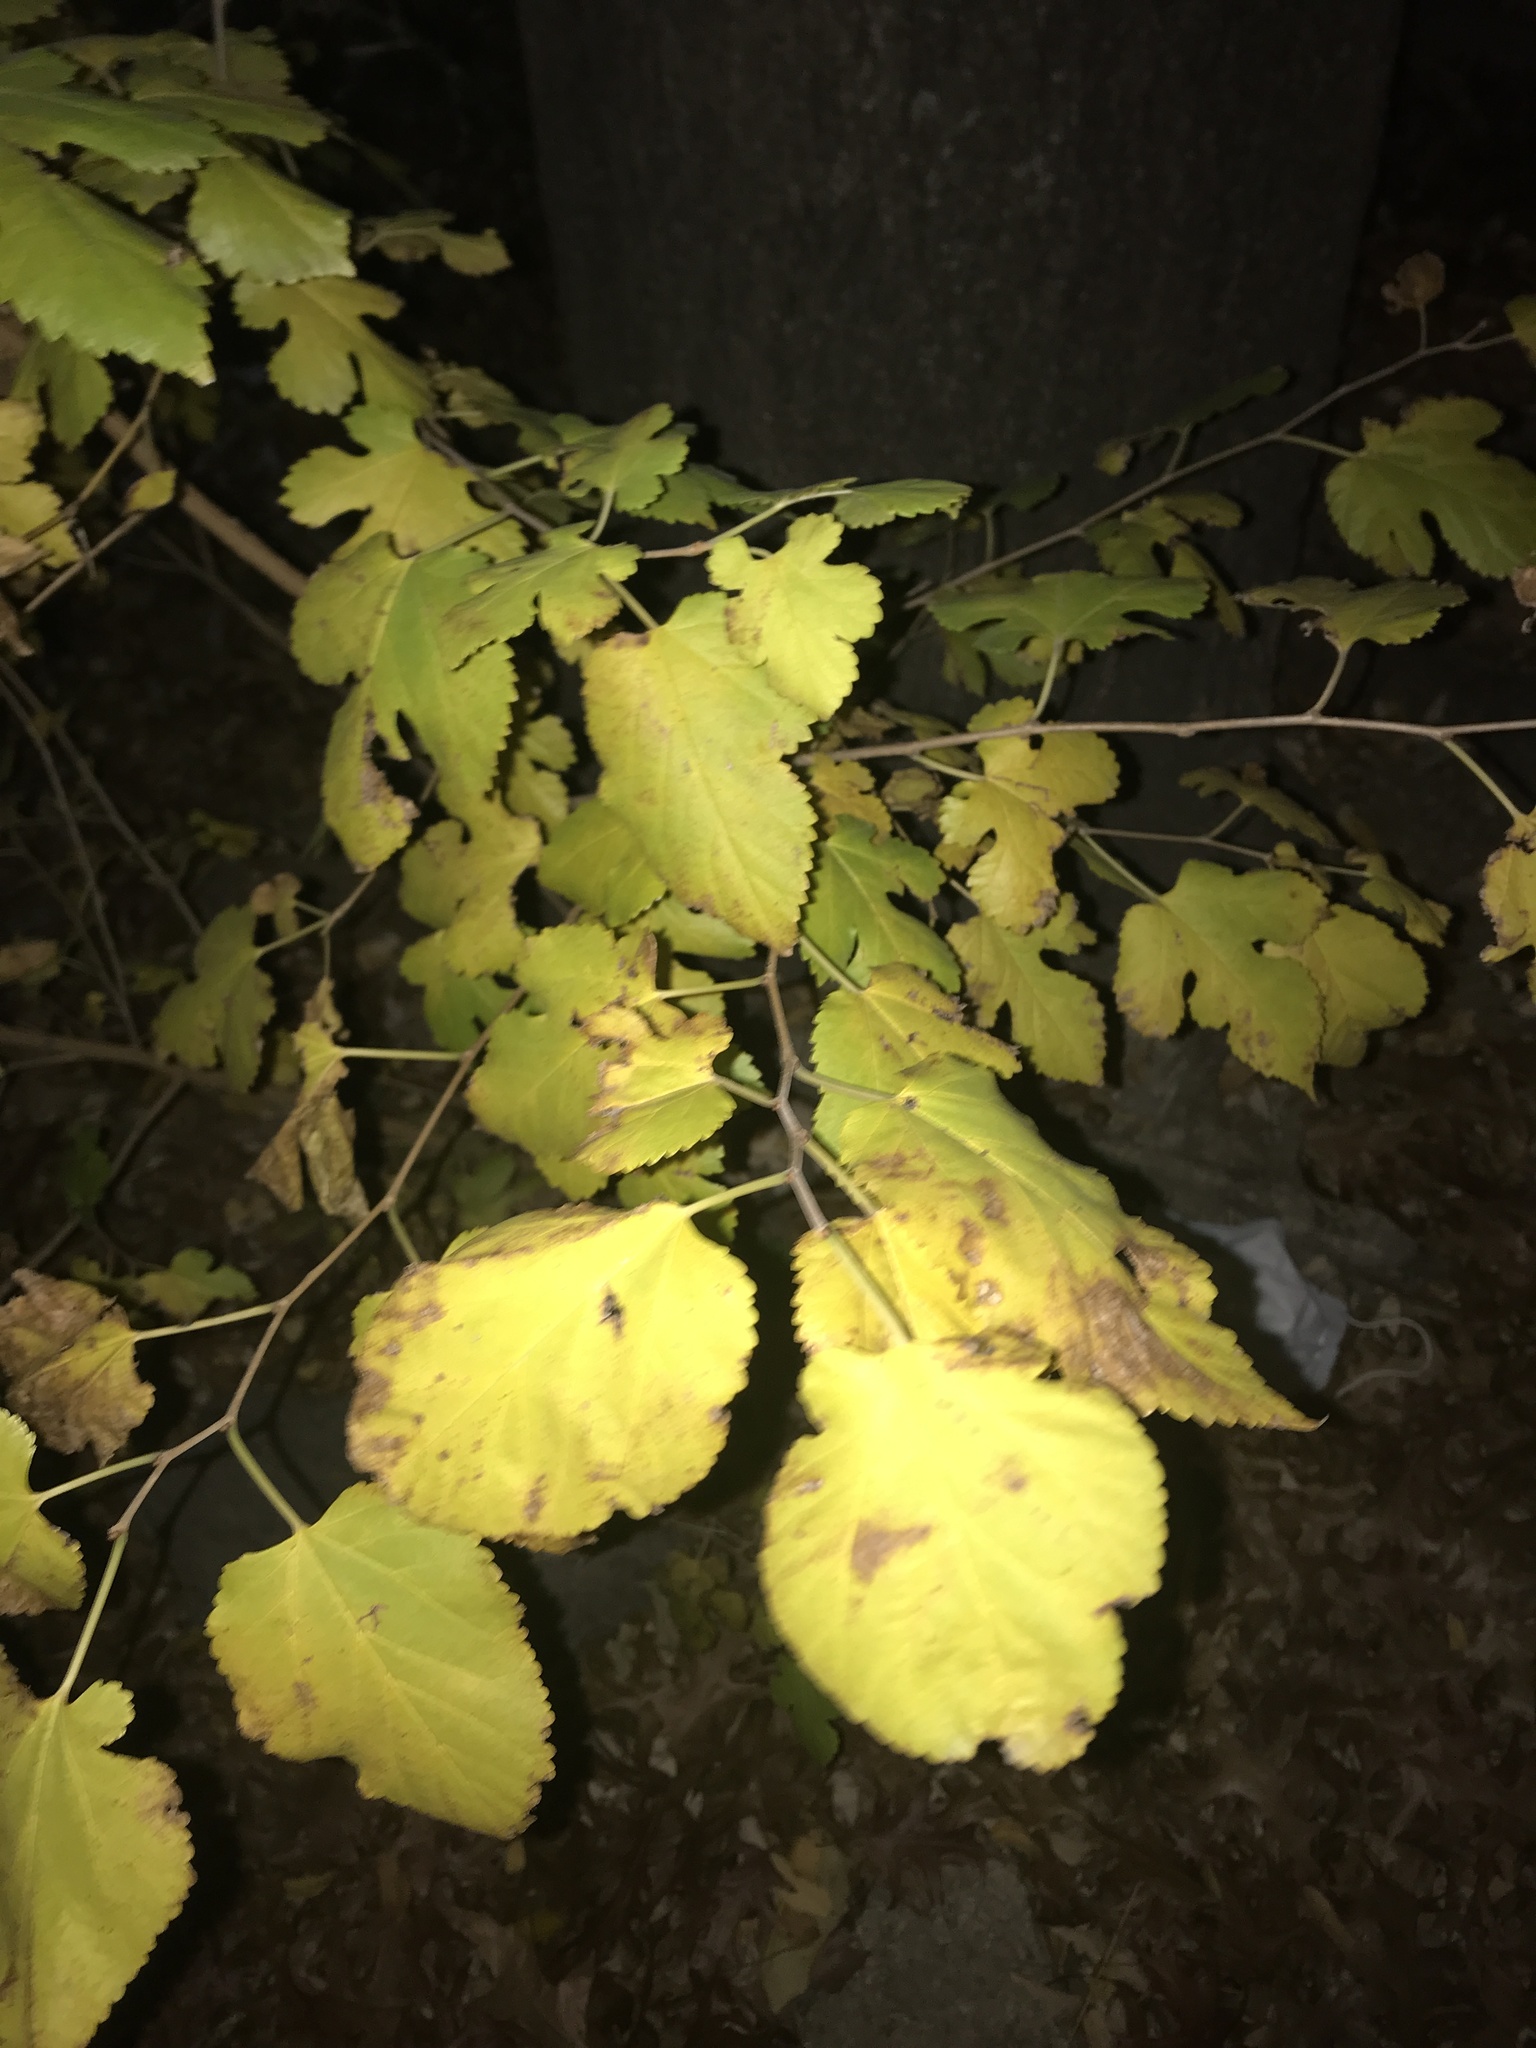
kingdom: Plantae
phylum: Tracheophyta
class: Magnoliopsida
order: Rosales
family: Moraceae
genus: Morus
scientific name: Morus alba
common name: White mulberry
